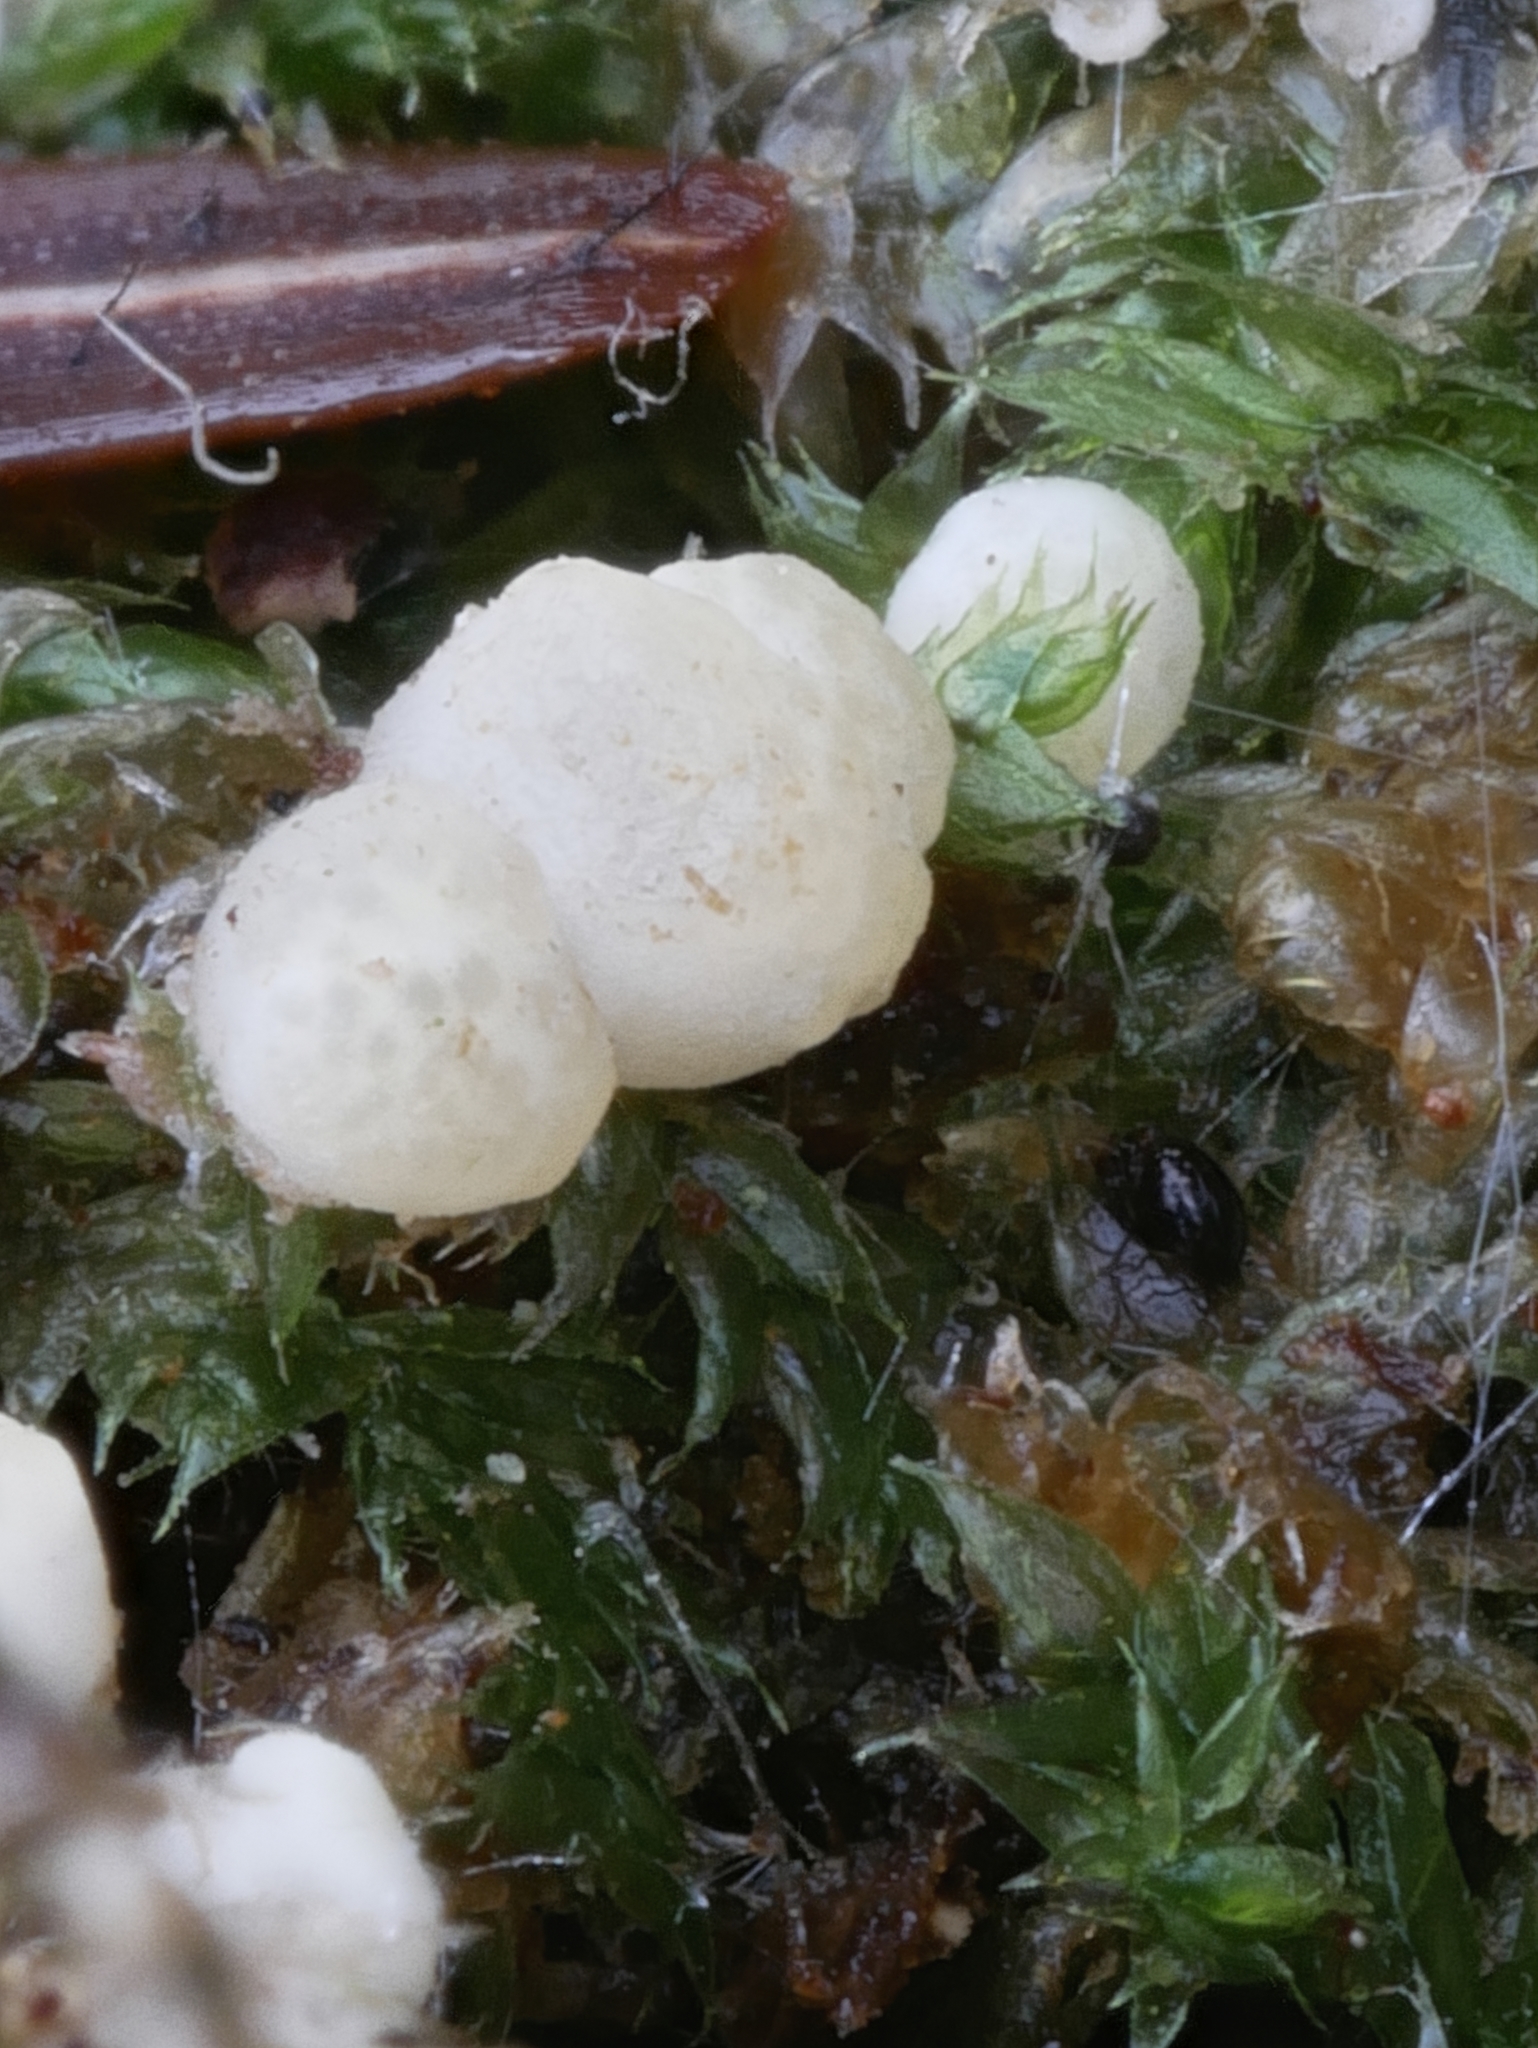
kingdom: Fungi
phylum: Ascomycota
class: Sordariomycetes
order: Hypocreales
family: Hypocreaceae
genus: Trichoderma
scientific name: Trichoderma sinuosum
